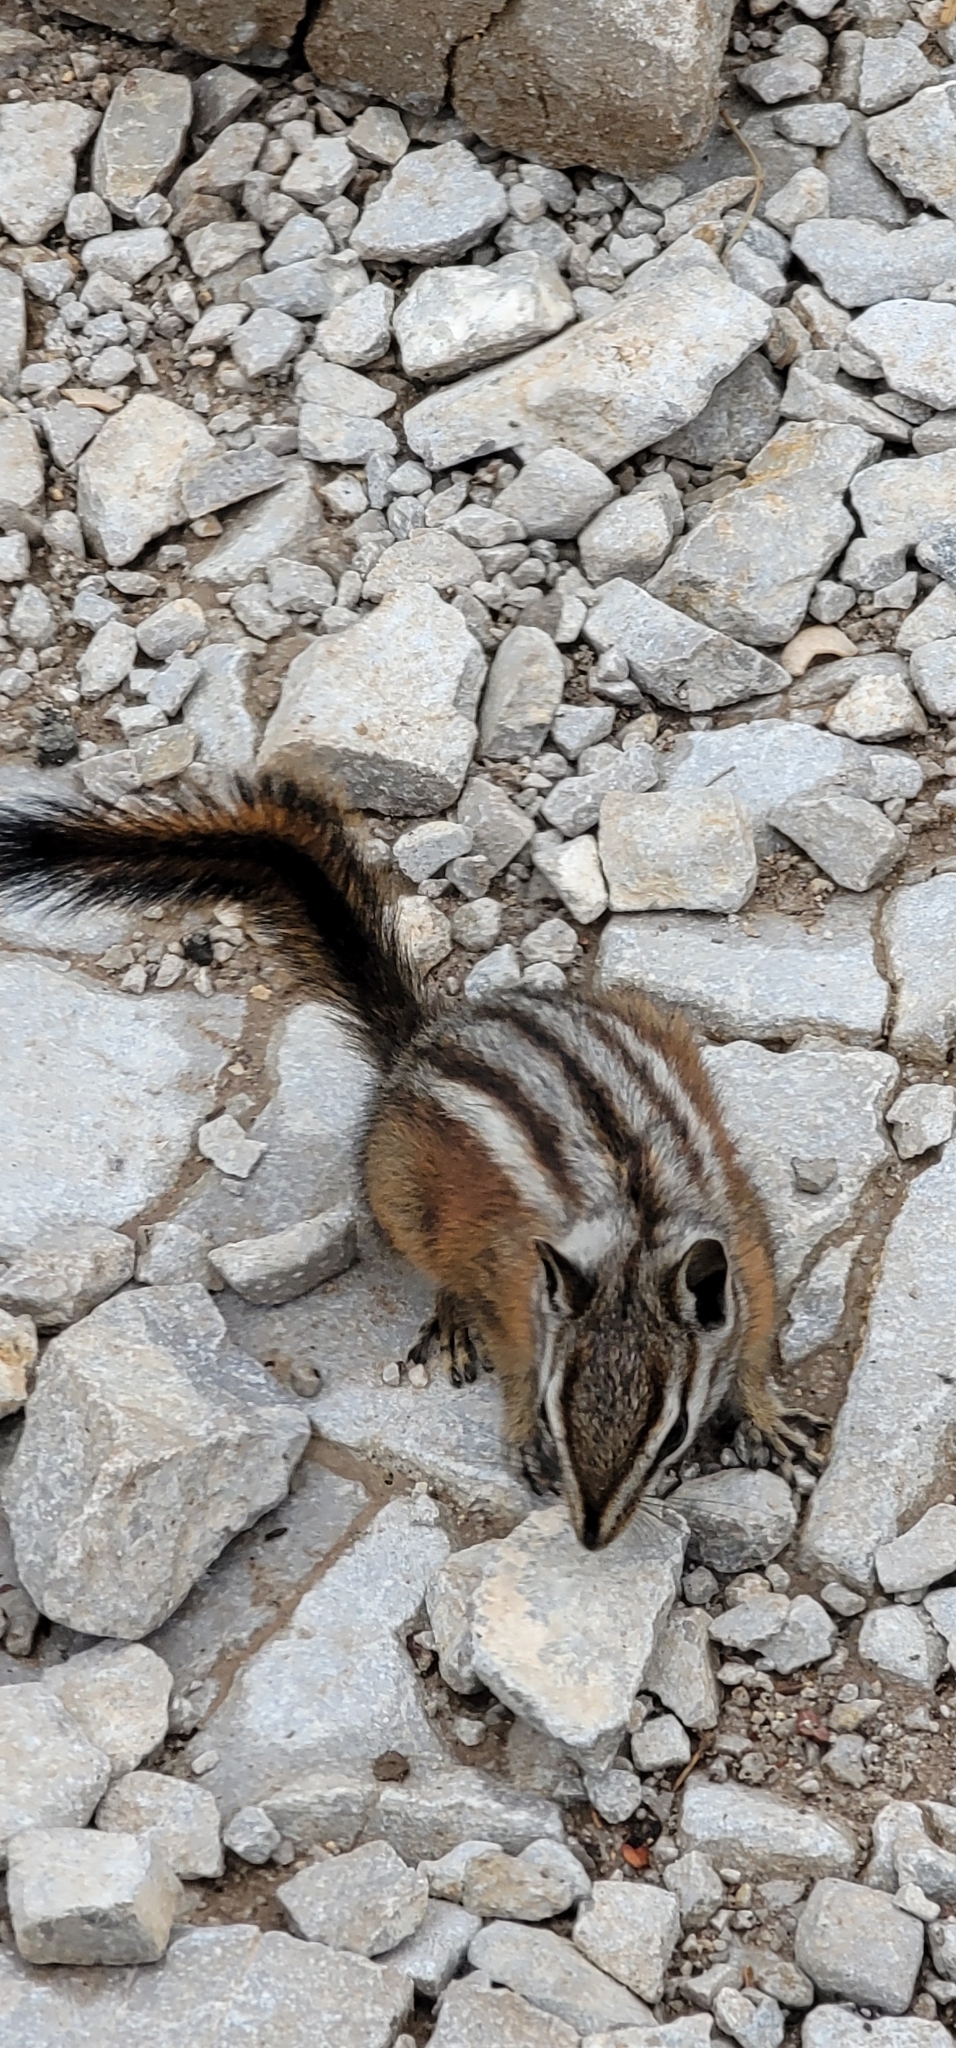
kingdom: Animalia
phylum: Chordata
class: Mammalia
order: Rodentia
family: Sciuridae
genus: Tamias
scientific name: Tamias palmeri
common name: Palmer's chipmunk
